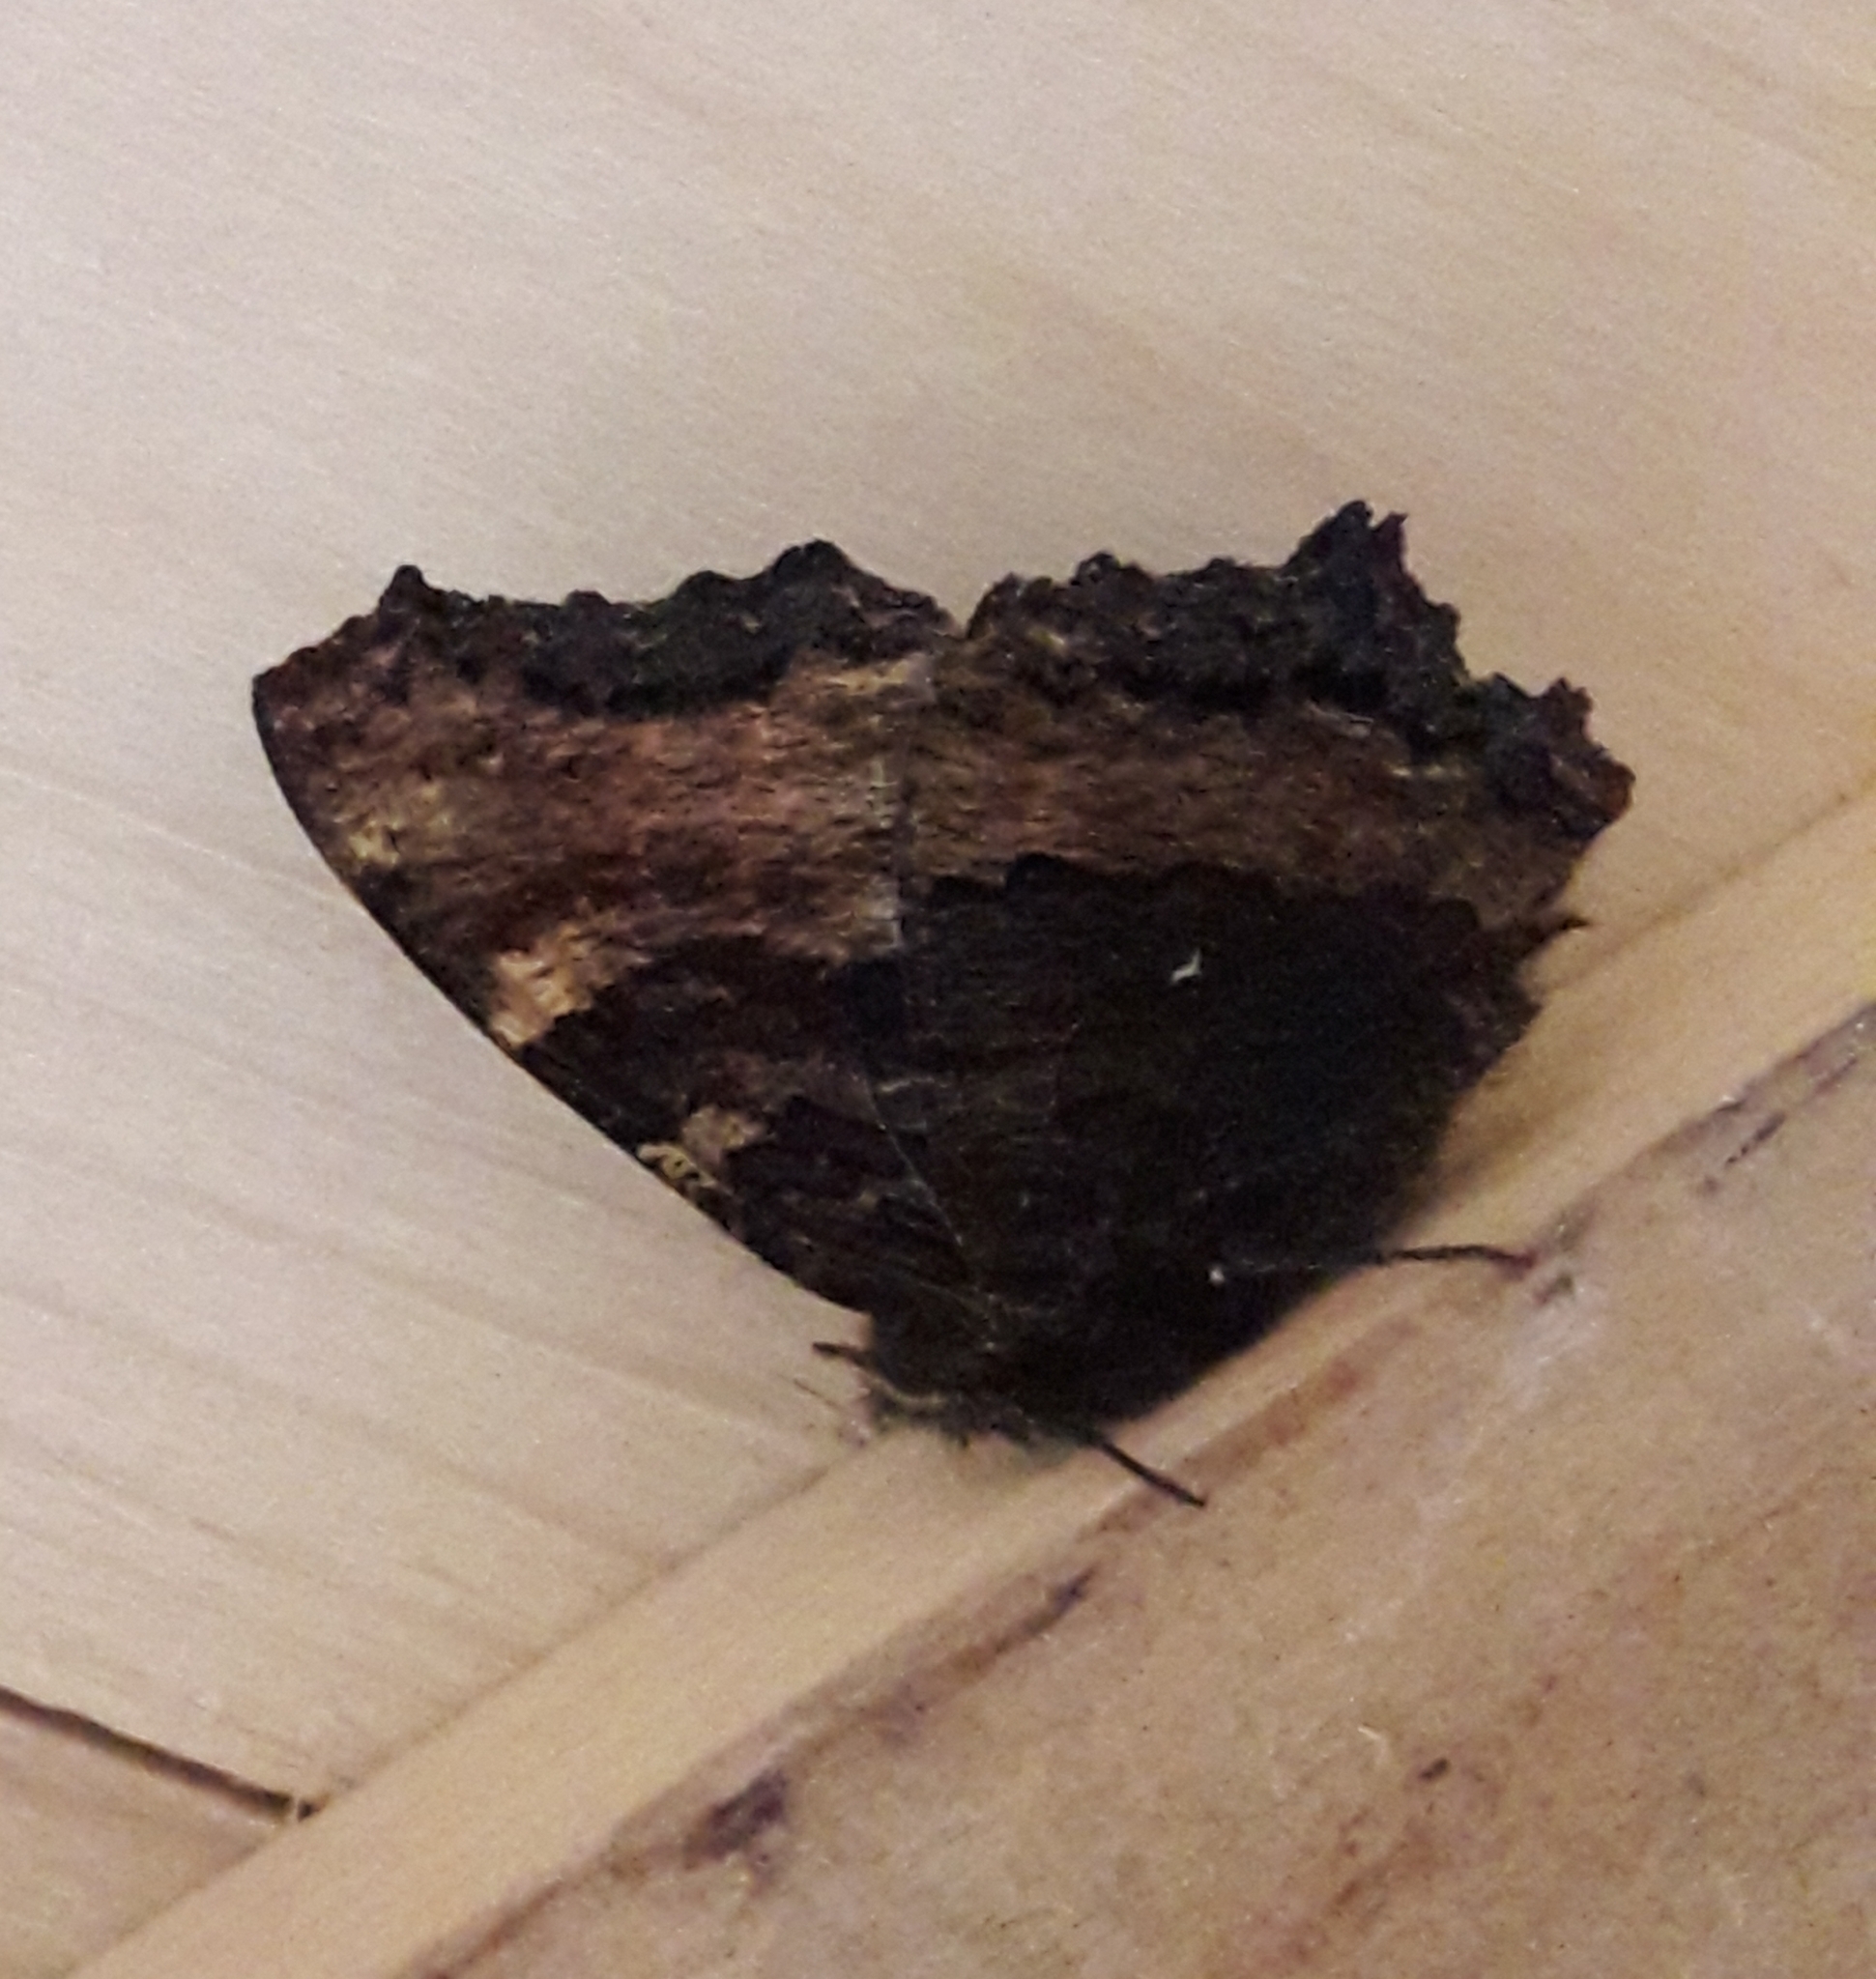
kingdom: Animalia
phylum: Arthropoda
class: Insecta
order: Lepidoptera
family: Nymphalidae
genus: Nymphalis
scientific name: Nymphalis polychloros
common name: Large tortoiseshell
